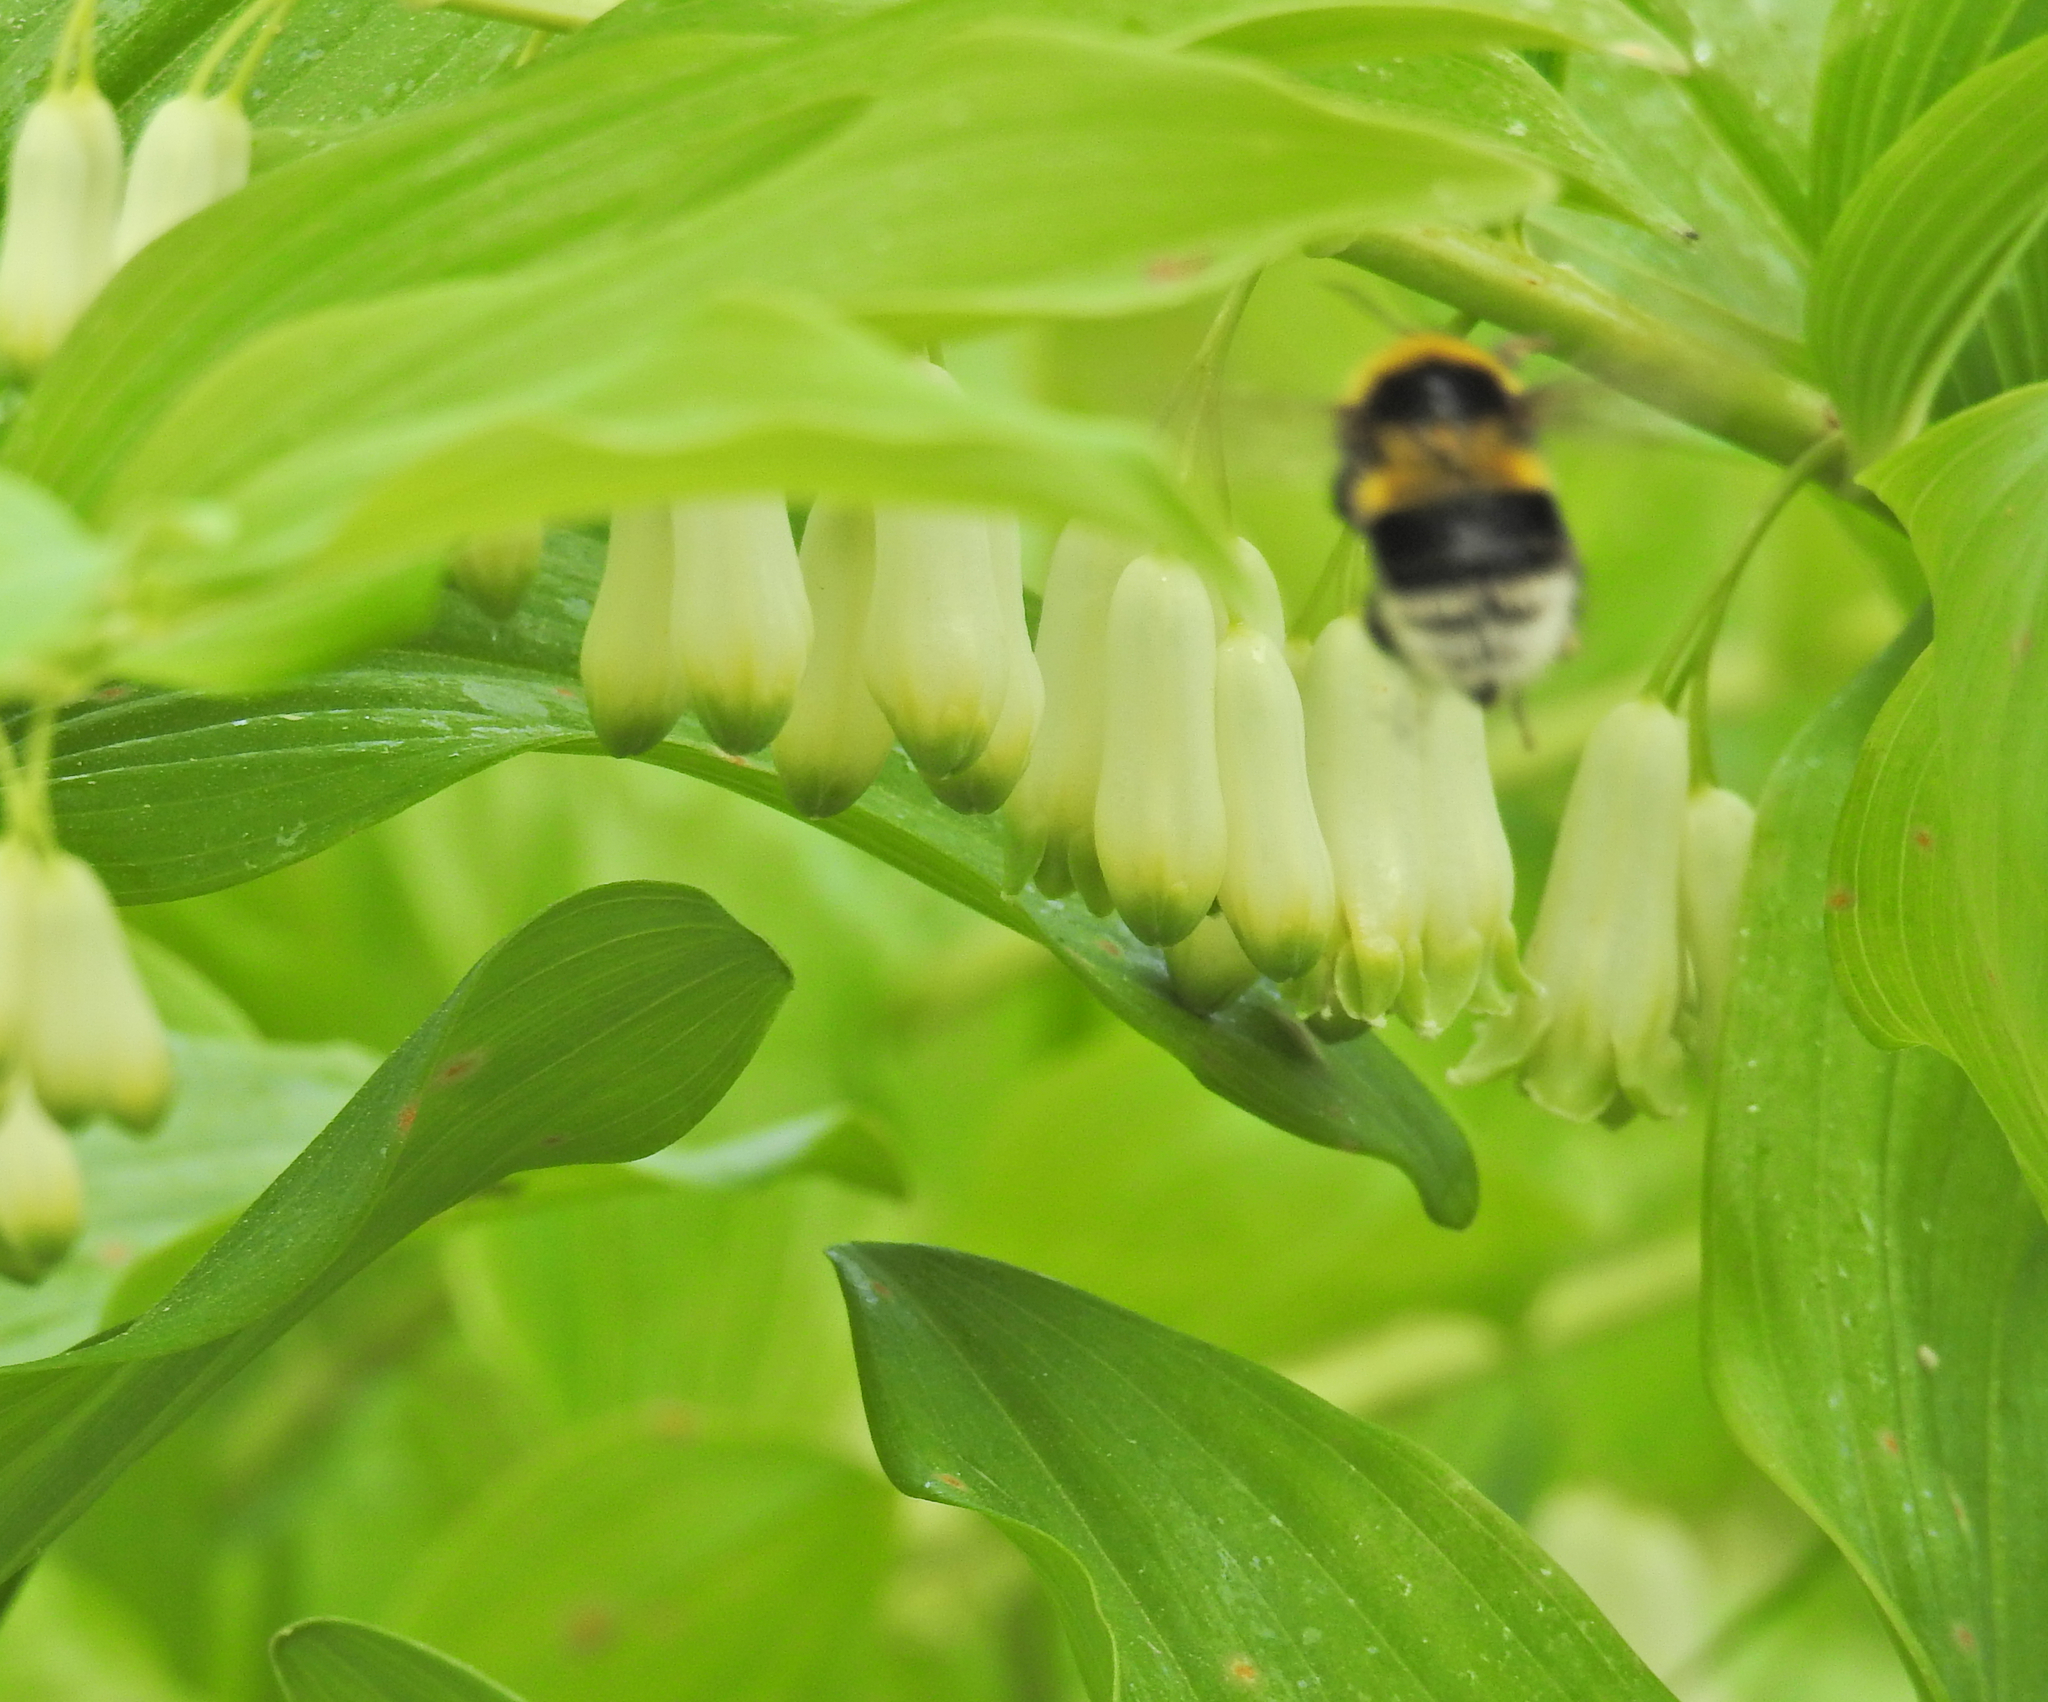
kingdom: Animalia
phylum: Arthropoda
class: Insecta
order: Hymenoptera
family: Apidae
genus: Bombus
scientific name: Bombus hortorum
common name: Garden bumblebee
